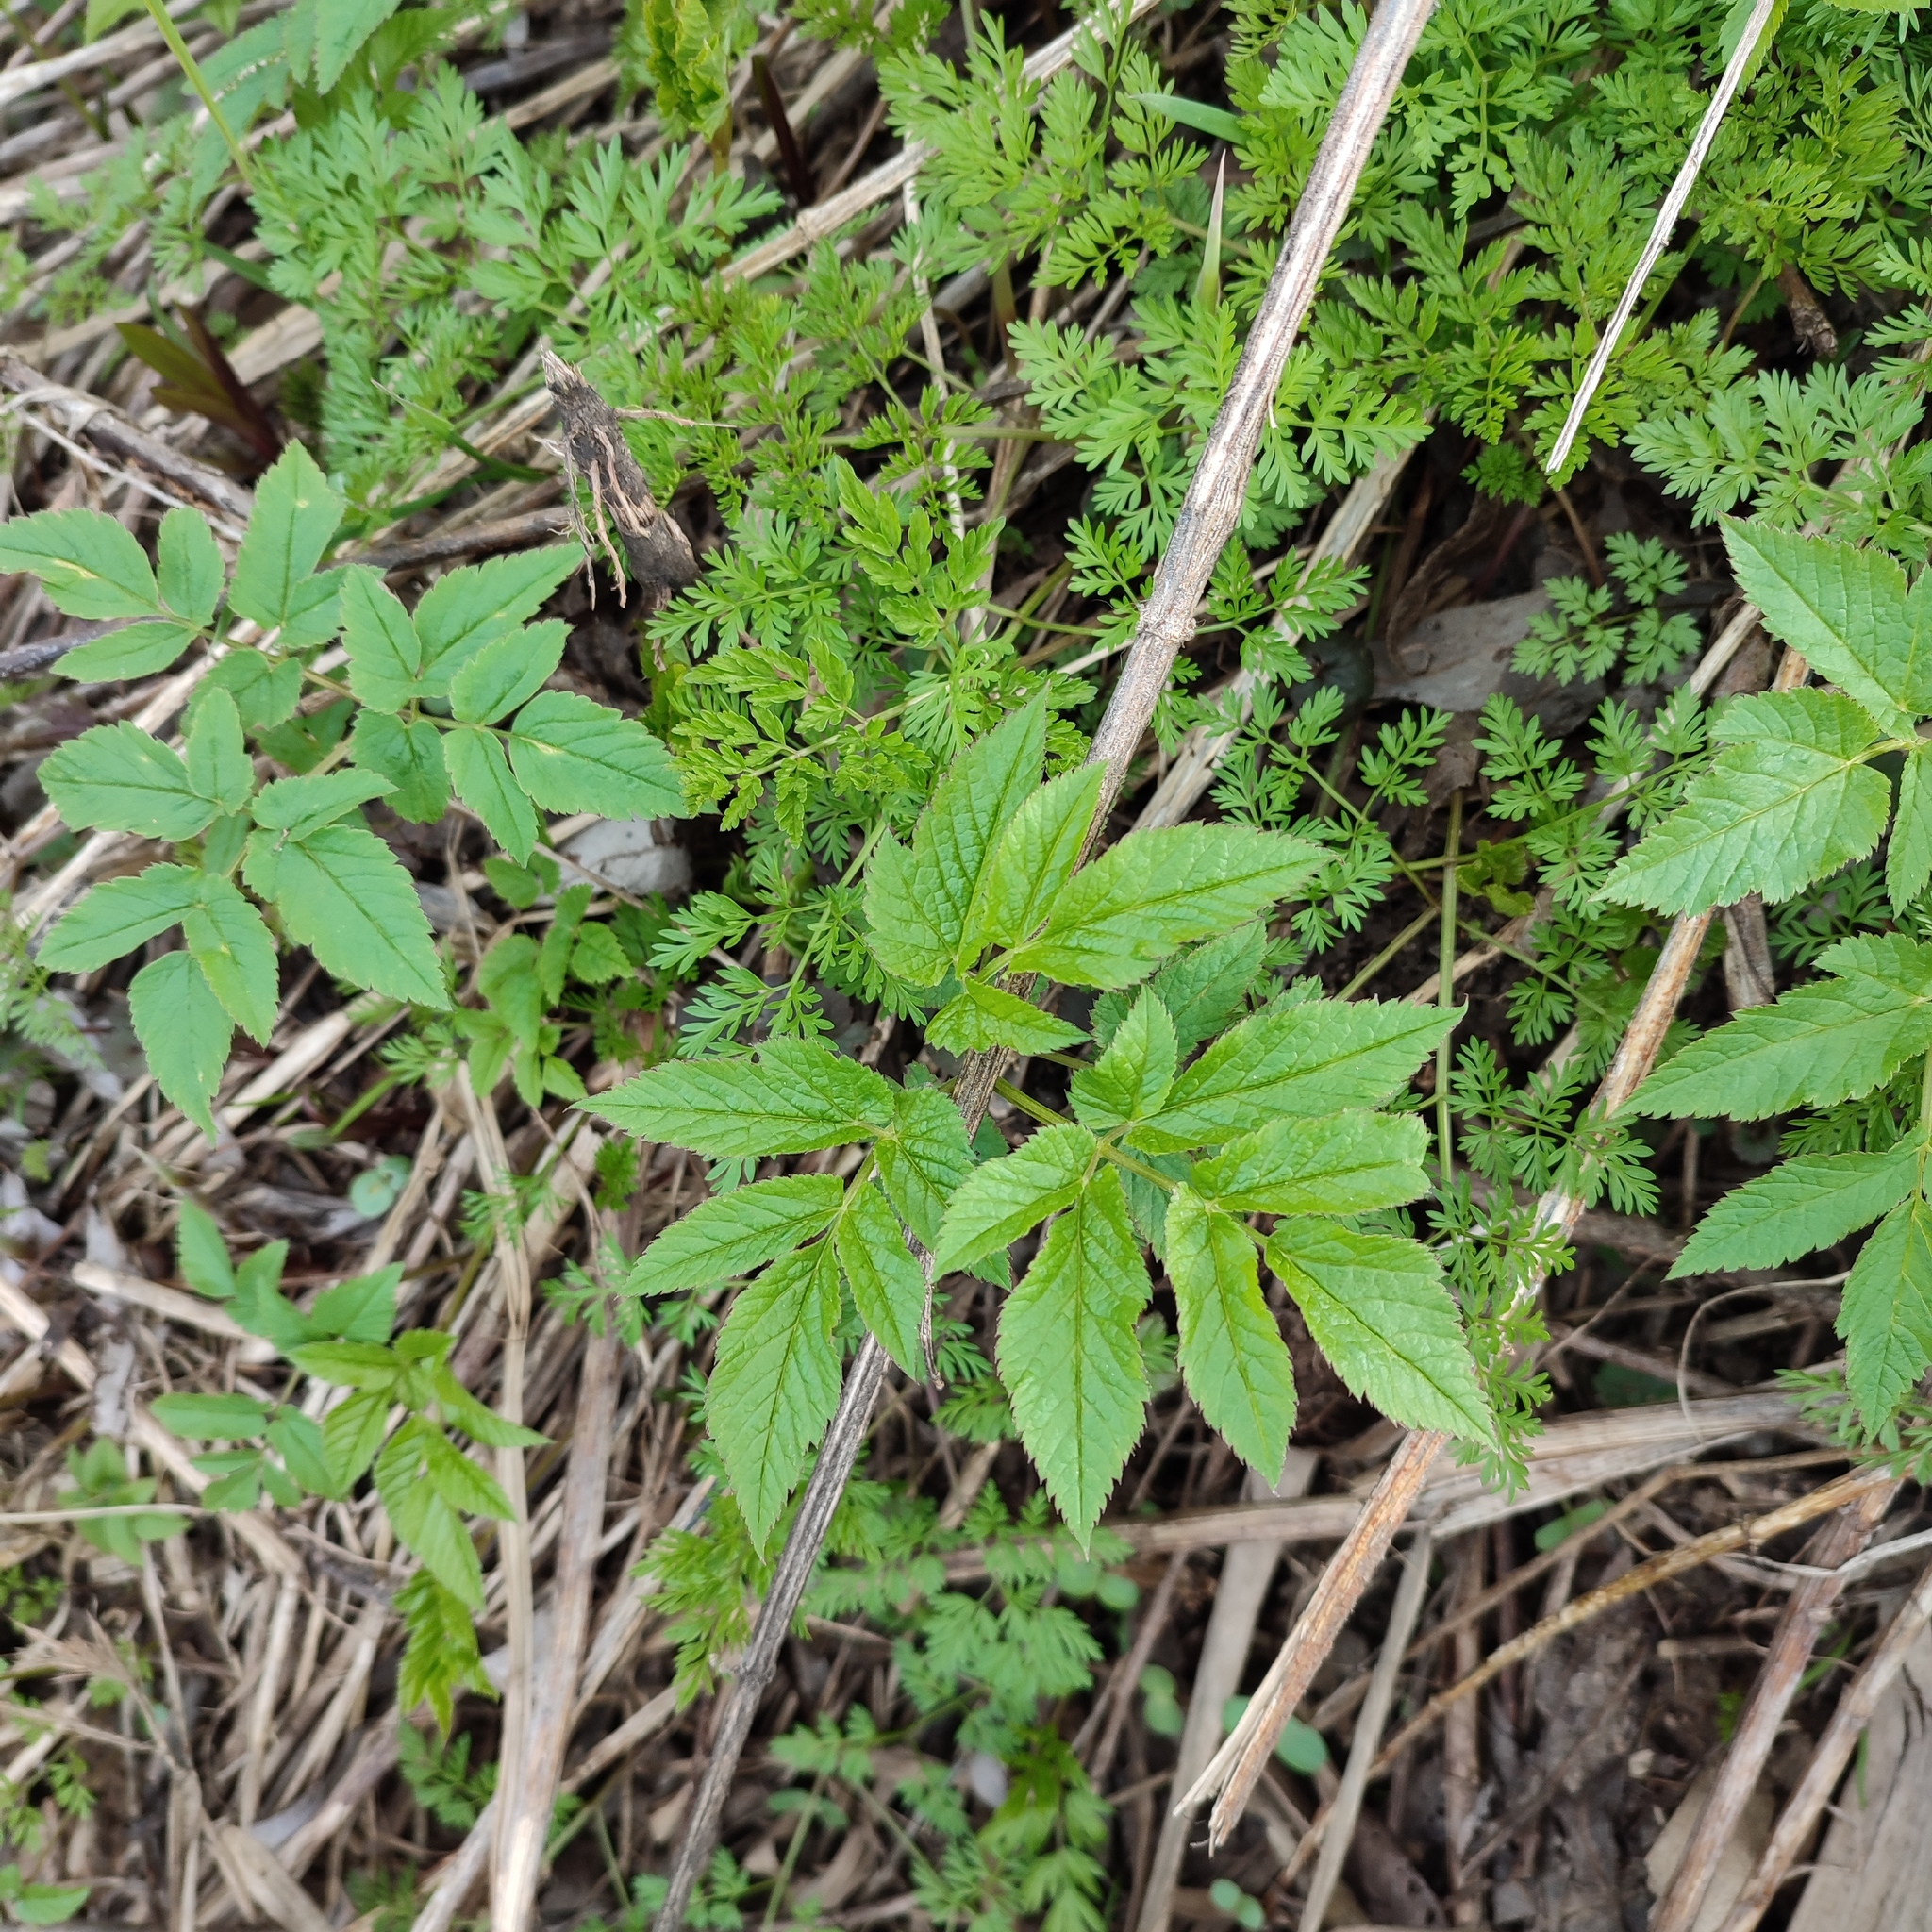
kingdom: Plantae
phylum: Tracheophyta
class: Magnoliopsida
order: Apiales
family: Apiaceae
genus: Aegopodium
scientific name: Aegopodium podagraria
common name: Ground-elder
